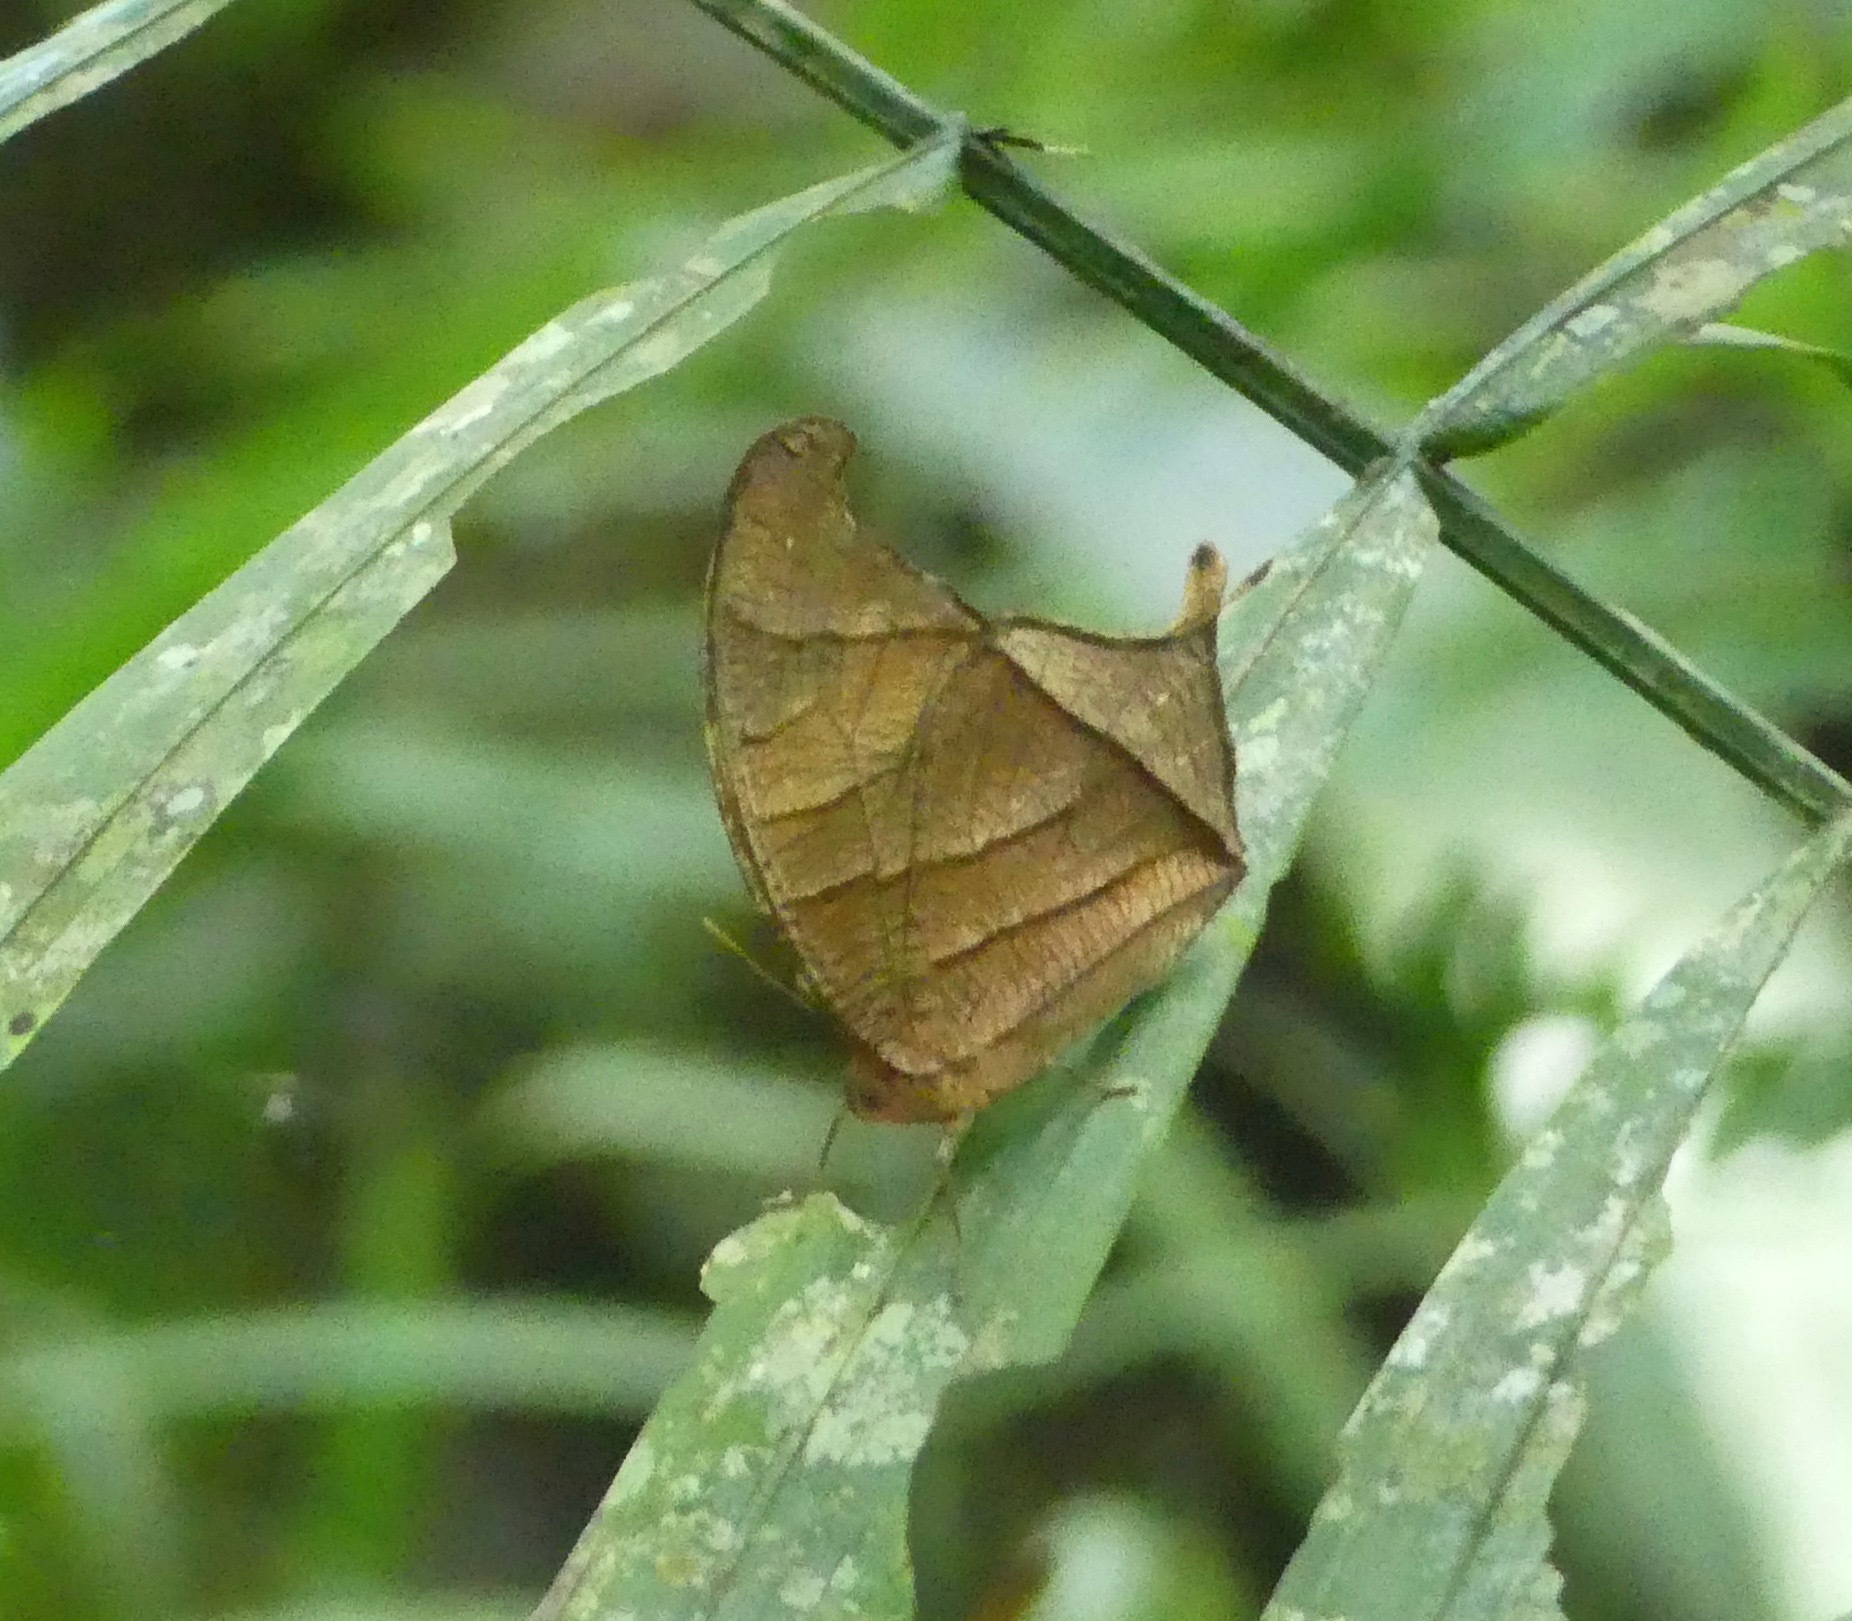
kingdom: Animalia
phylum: Arthropoda
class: Insecta
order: Lepidoptera
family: Nymphalidae
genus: Caerois
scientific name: Caerois chorinaeus
